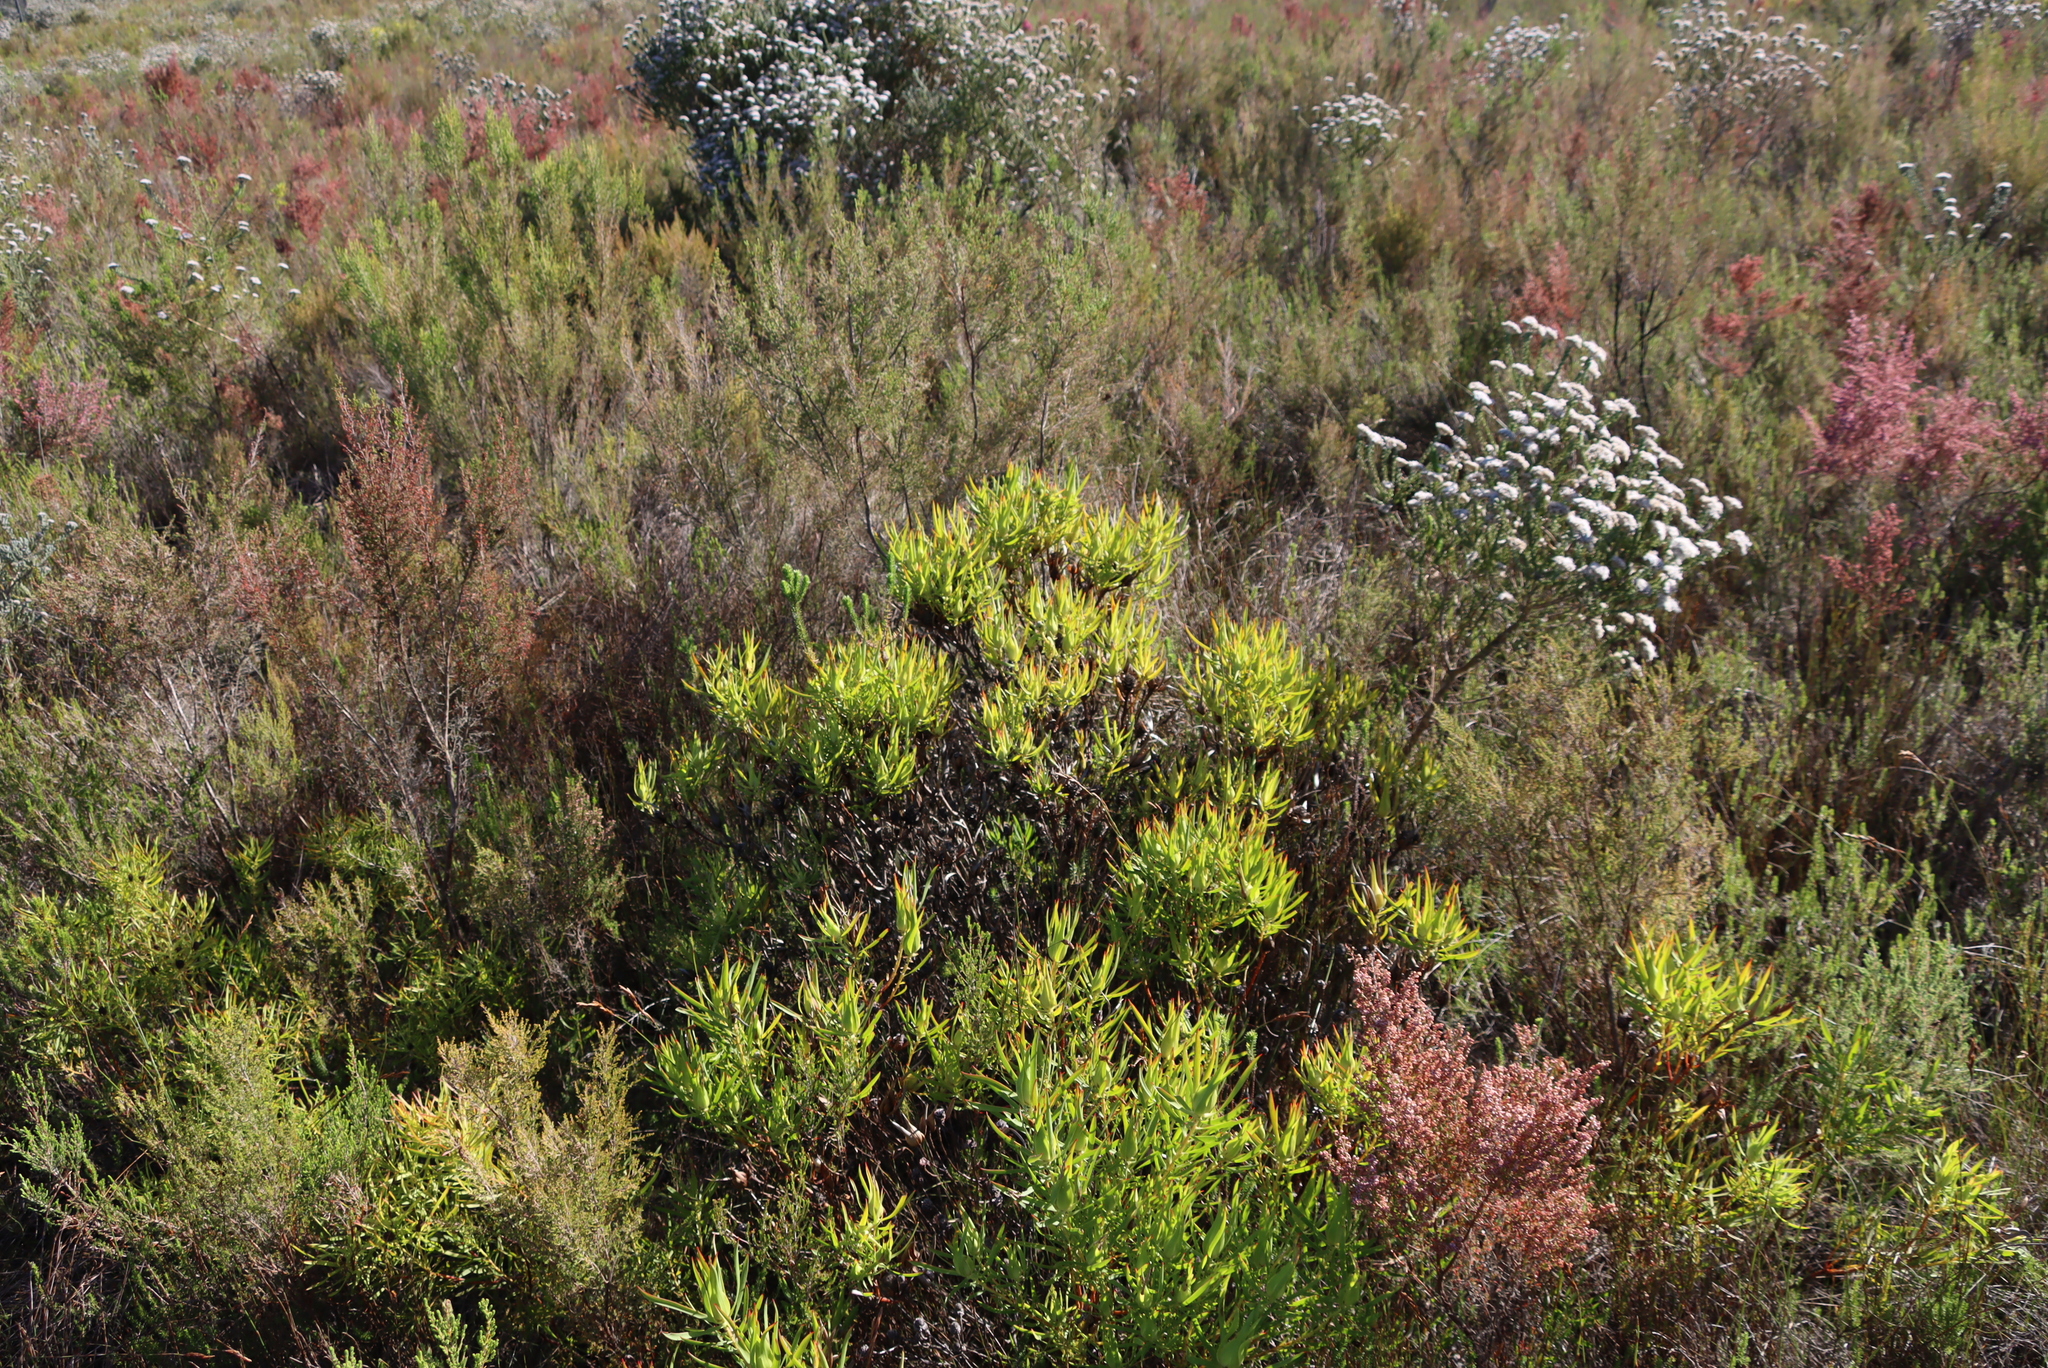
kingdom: Plantae
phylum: Tracheophyta
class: Magnoliopsida
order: Proteales
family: Proteaceae
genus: Leucadendron
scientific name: Leucadendron salignum
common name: Common sunshine conebush
